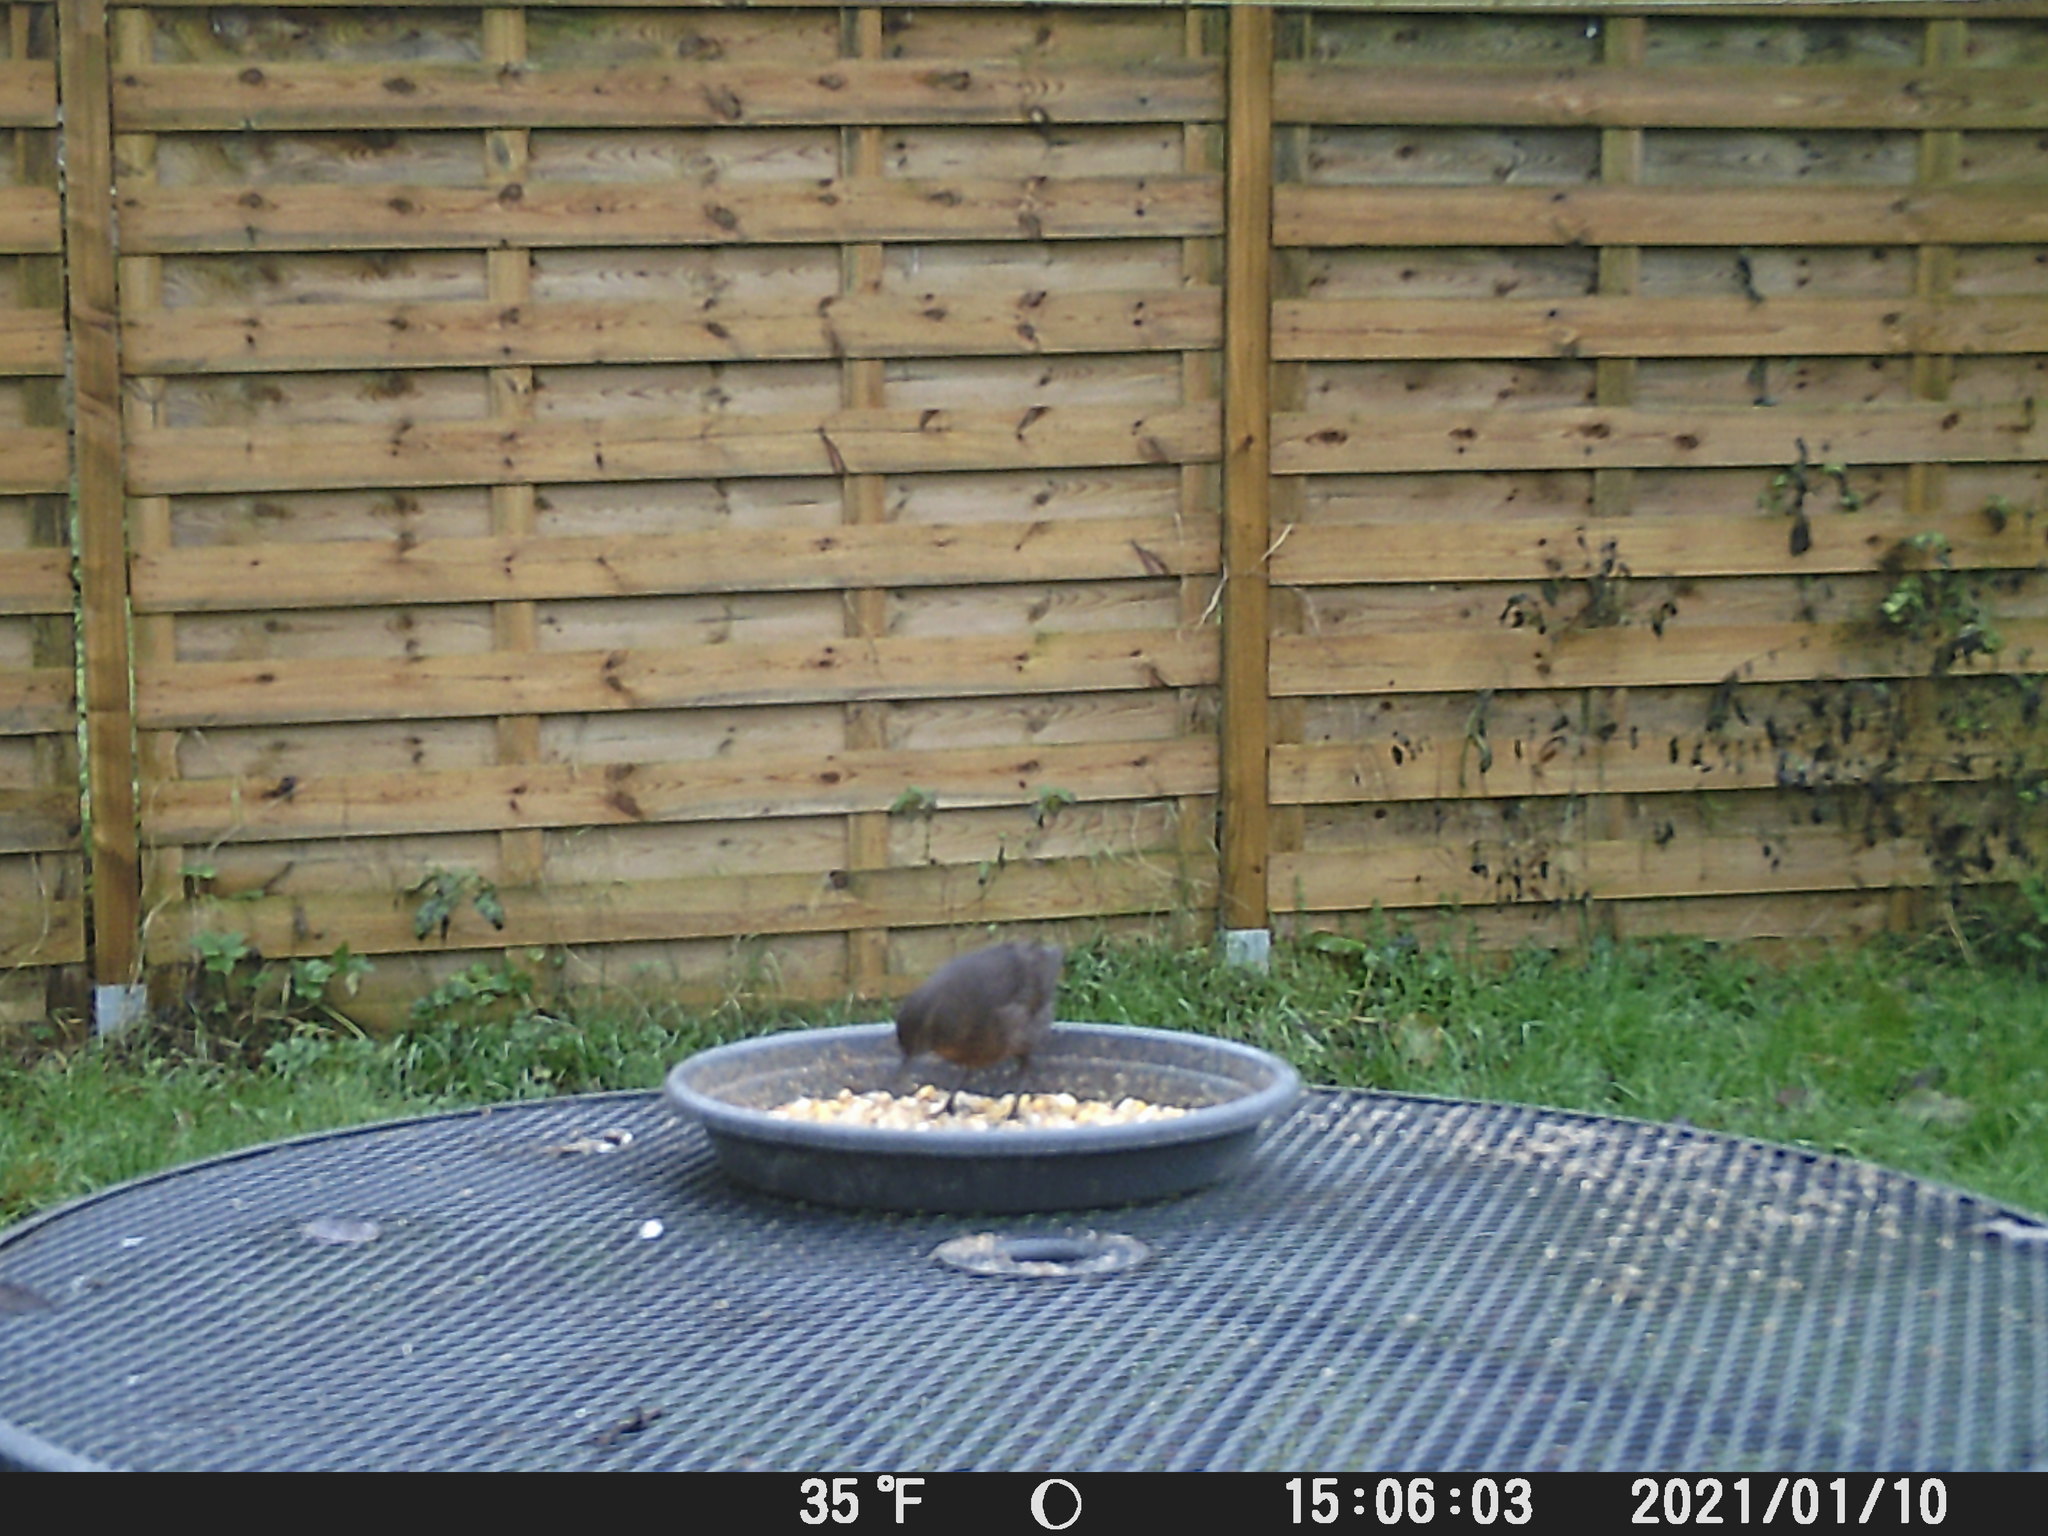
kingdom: Animalia
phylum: Chordata
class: Aves
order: Passeriformes
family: Turdidae
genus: Turdus
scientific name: Turdus merula
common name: Common blackbird
